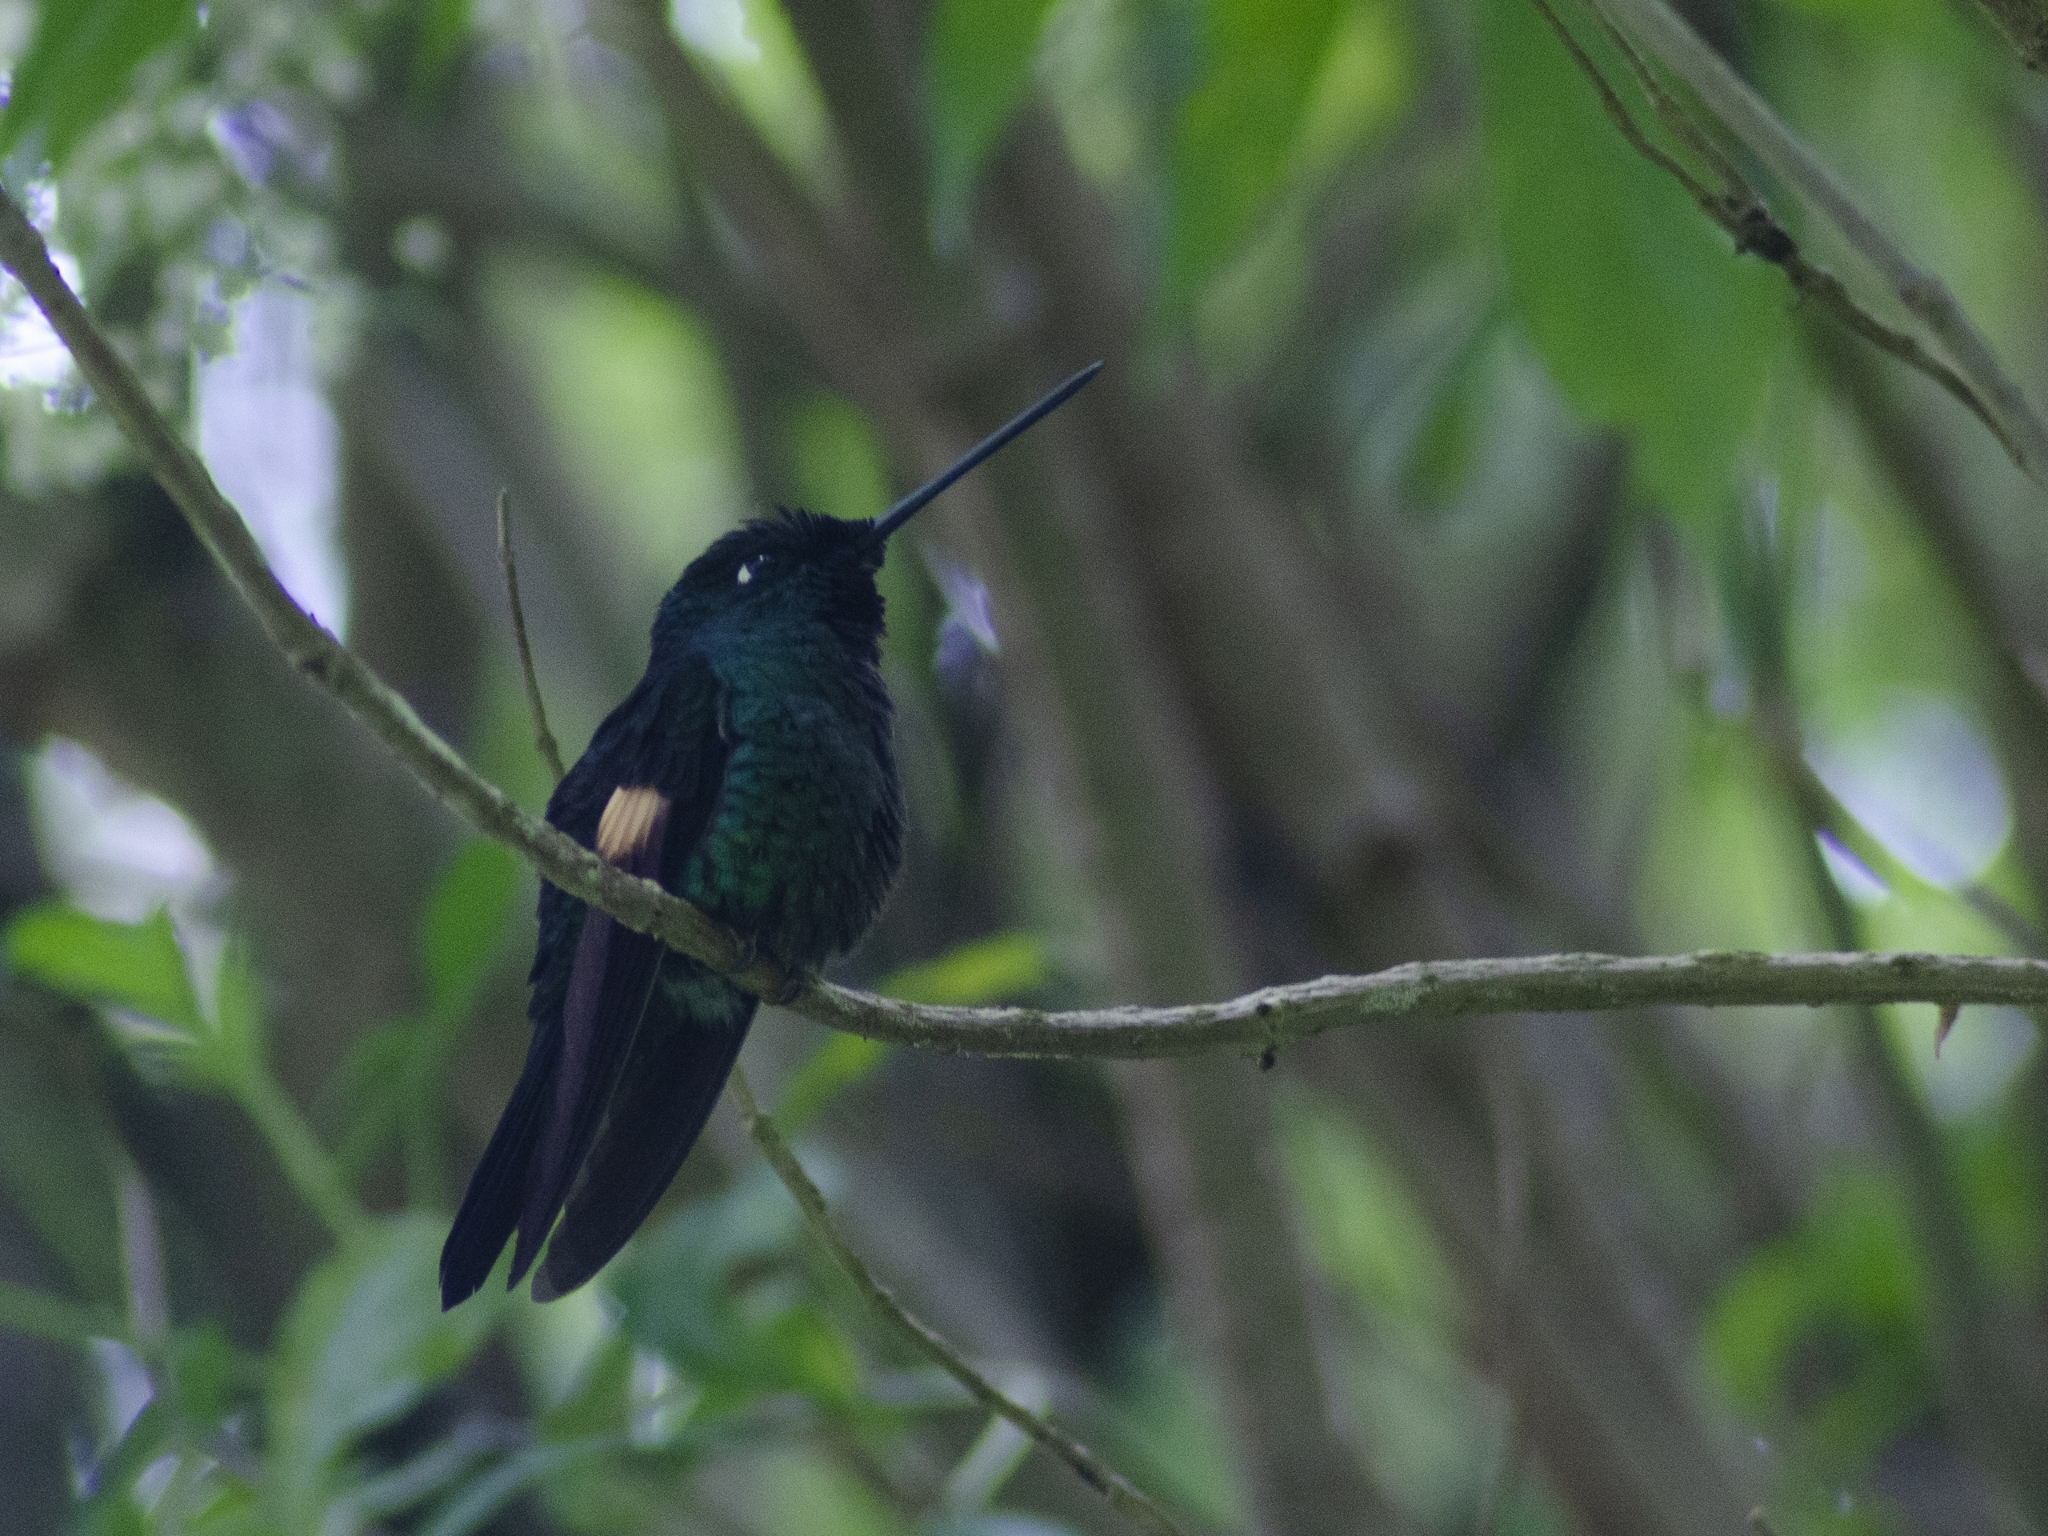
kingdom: Animalia
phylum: Chordata
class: Aves
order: Apodiformes
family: Trochilidae
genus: Coeligena
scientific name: Coeligena lutetiae
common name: Buff-winged starfrontlet
